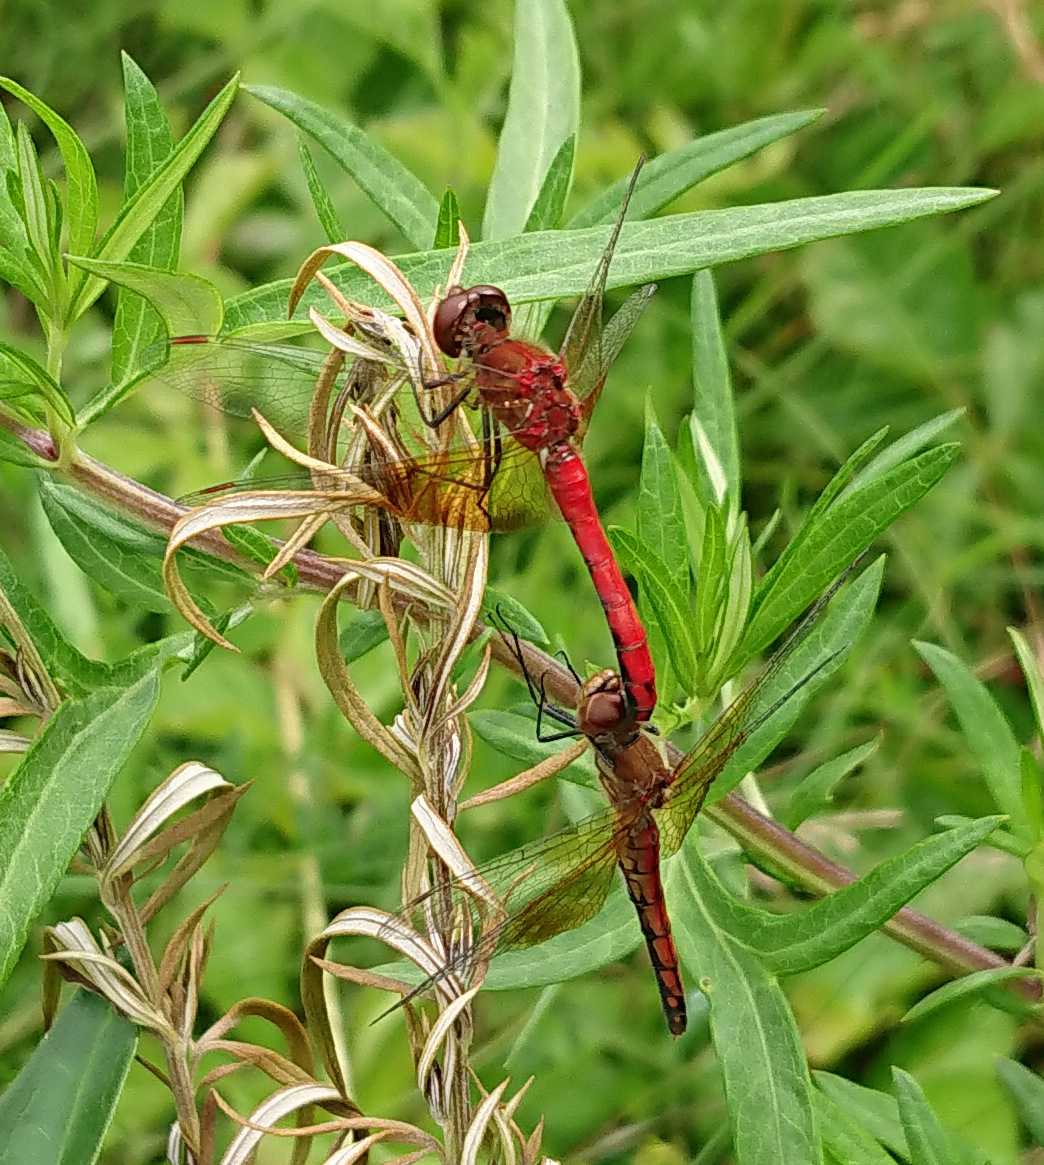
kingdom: Animalia
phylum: Arthropoda
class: Insecta
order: Odonata
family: Libellulidae
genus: Sympetrum
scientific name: Sympetrum semicinctum
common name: Band-winged meadowhawk
